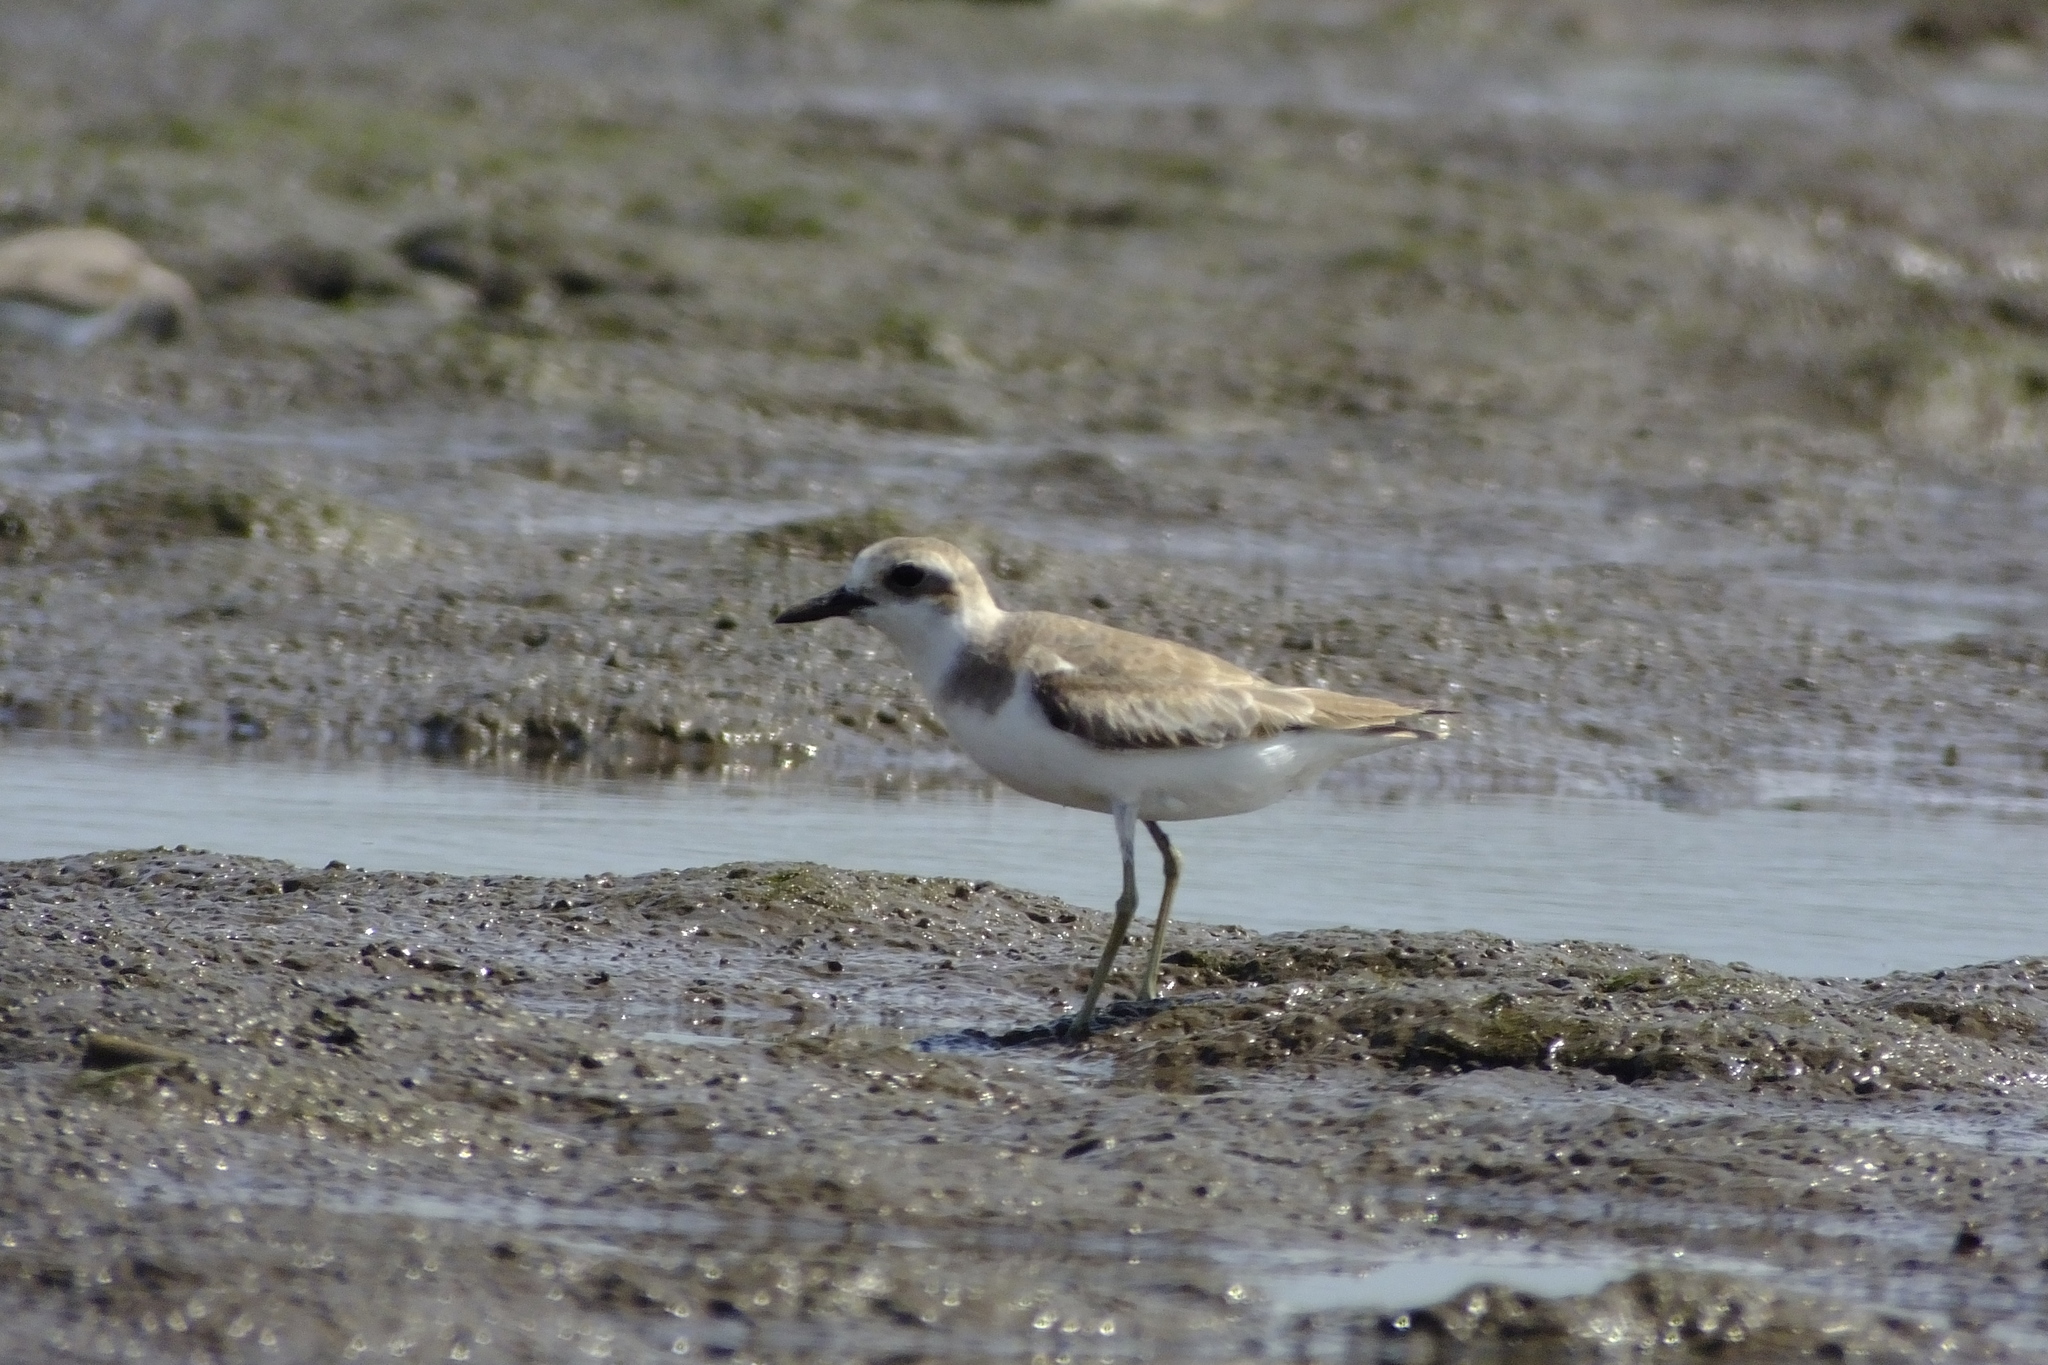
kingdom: Animalia
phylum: Chordata
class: Aves
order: Charadriiformes
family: Charadriidae
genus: Charadrius
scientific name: Charadrius leschenaultii
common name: Greater sand plover
